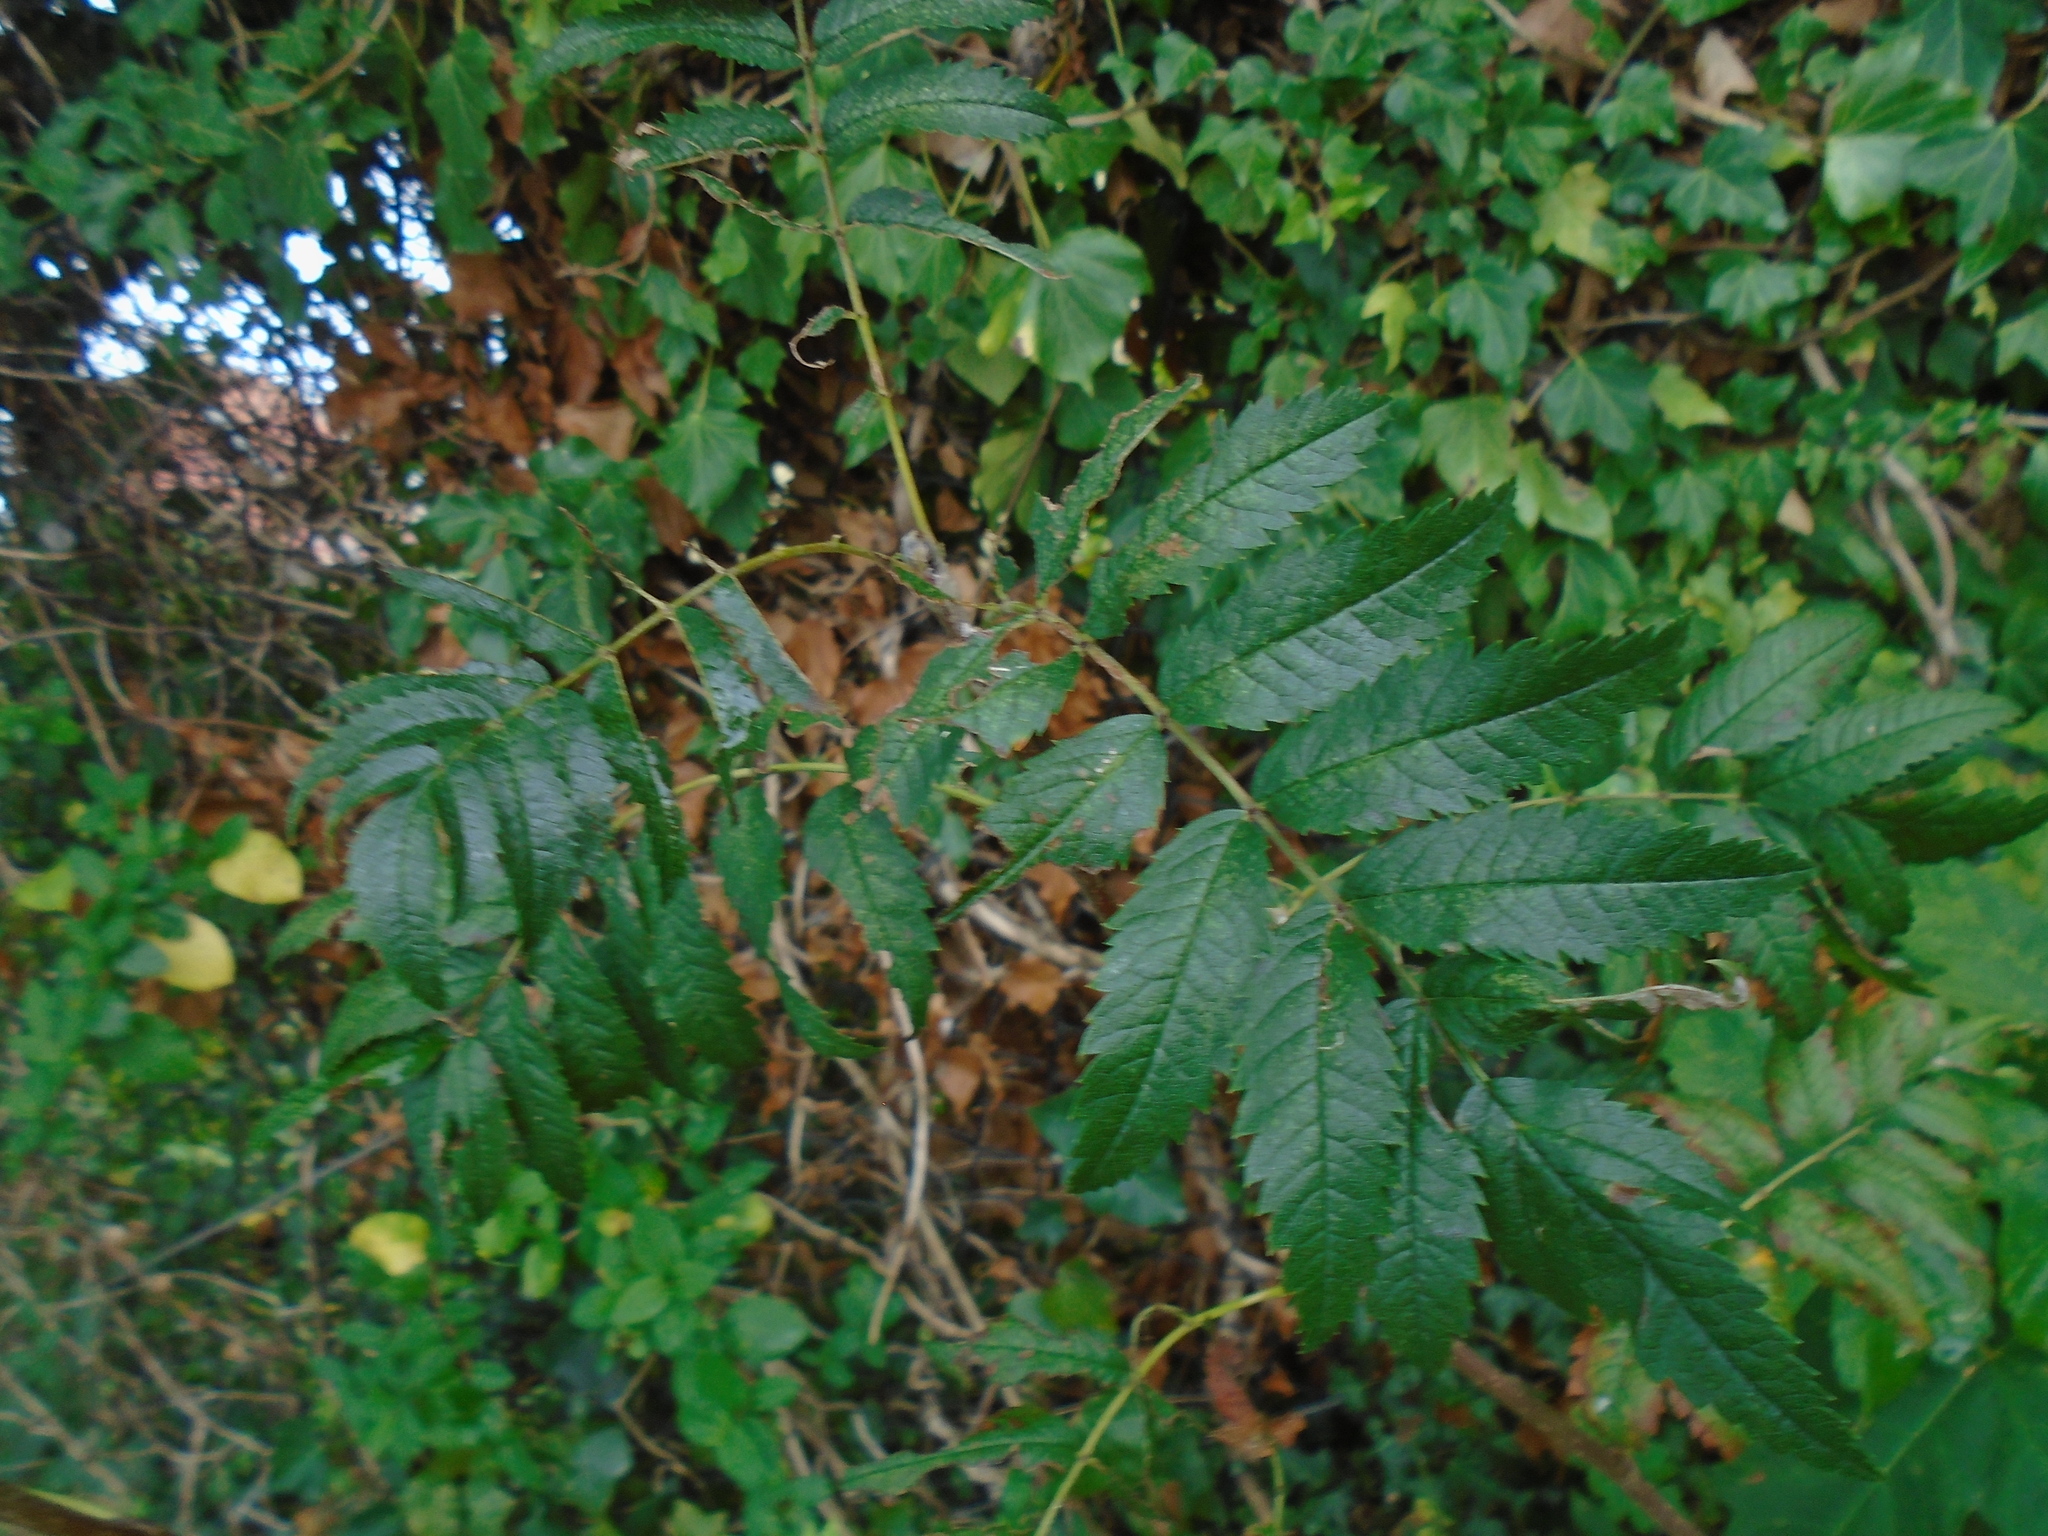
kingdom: Plantae
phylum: Tracheophyta
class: Magnoliopsida
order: Rosales
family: Rosaceae
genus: Sorbus
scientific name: Sorbus aucuparia
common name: Rowan
